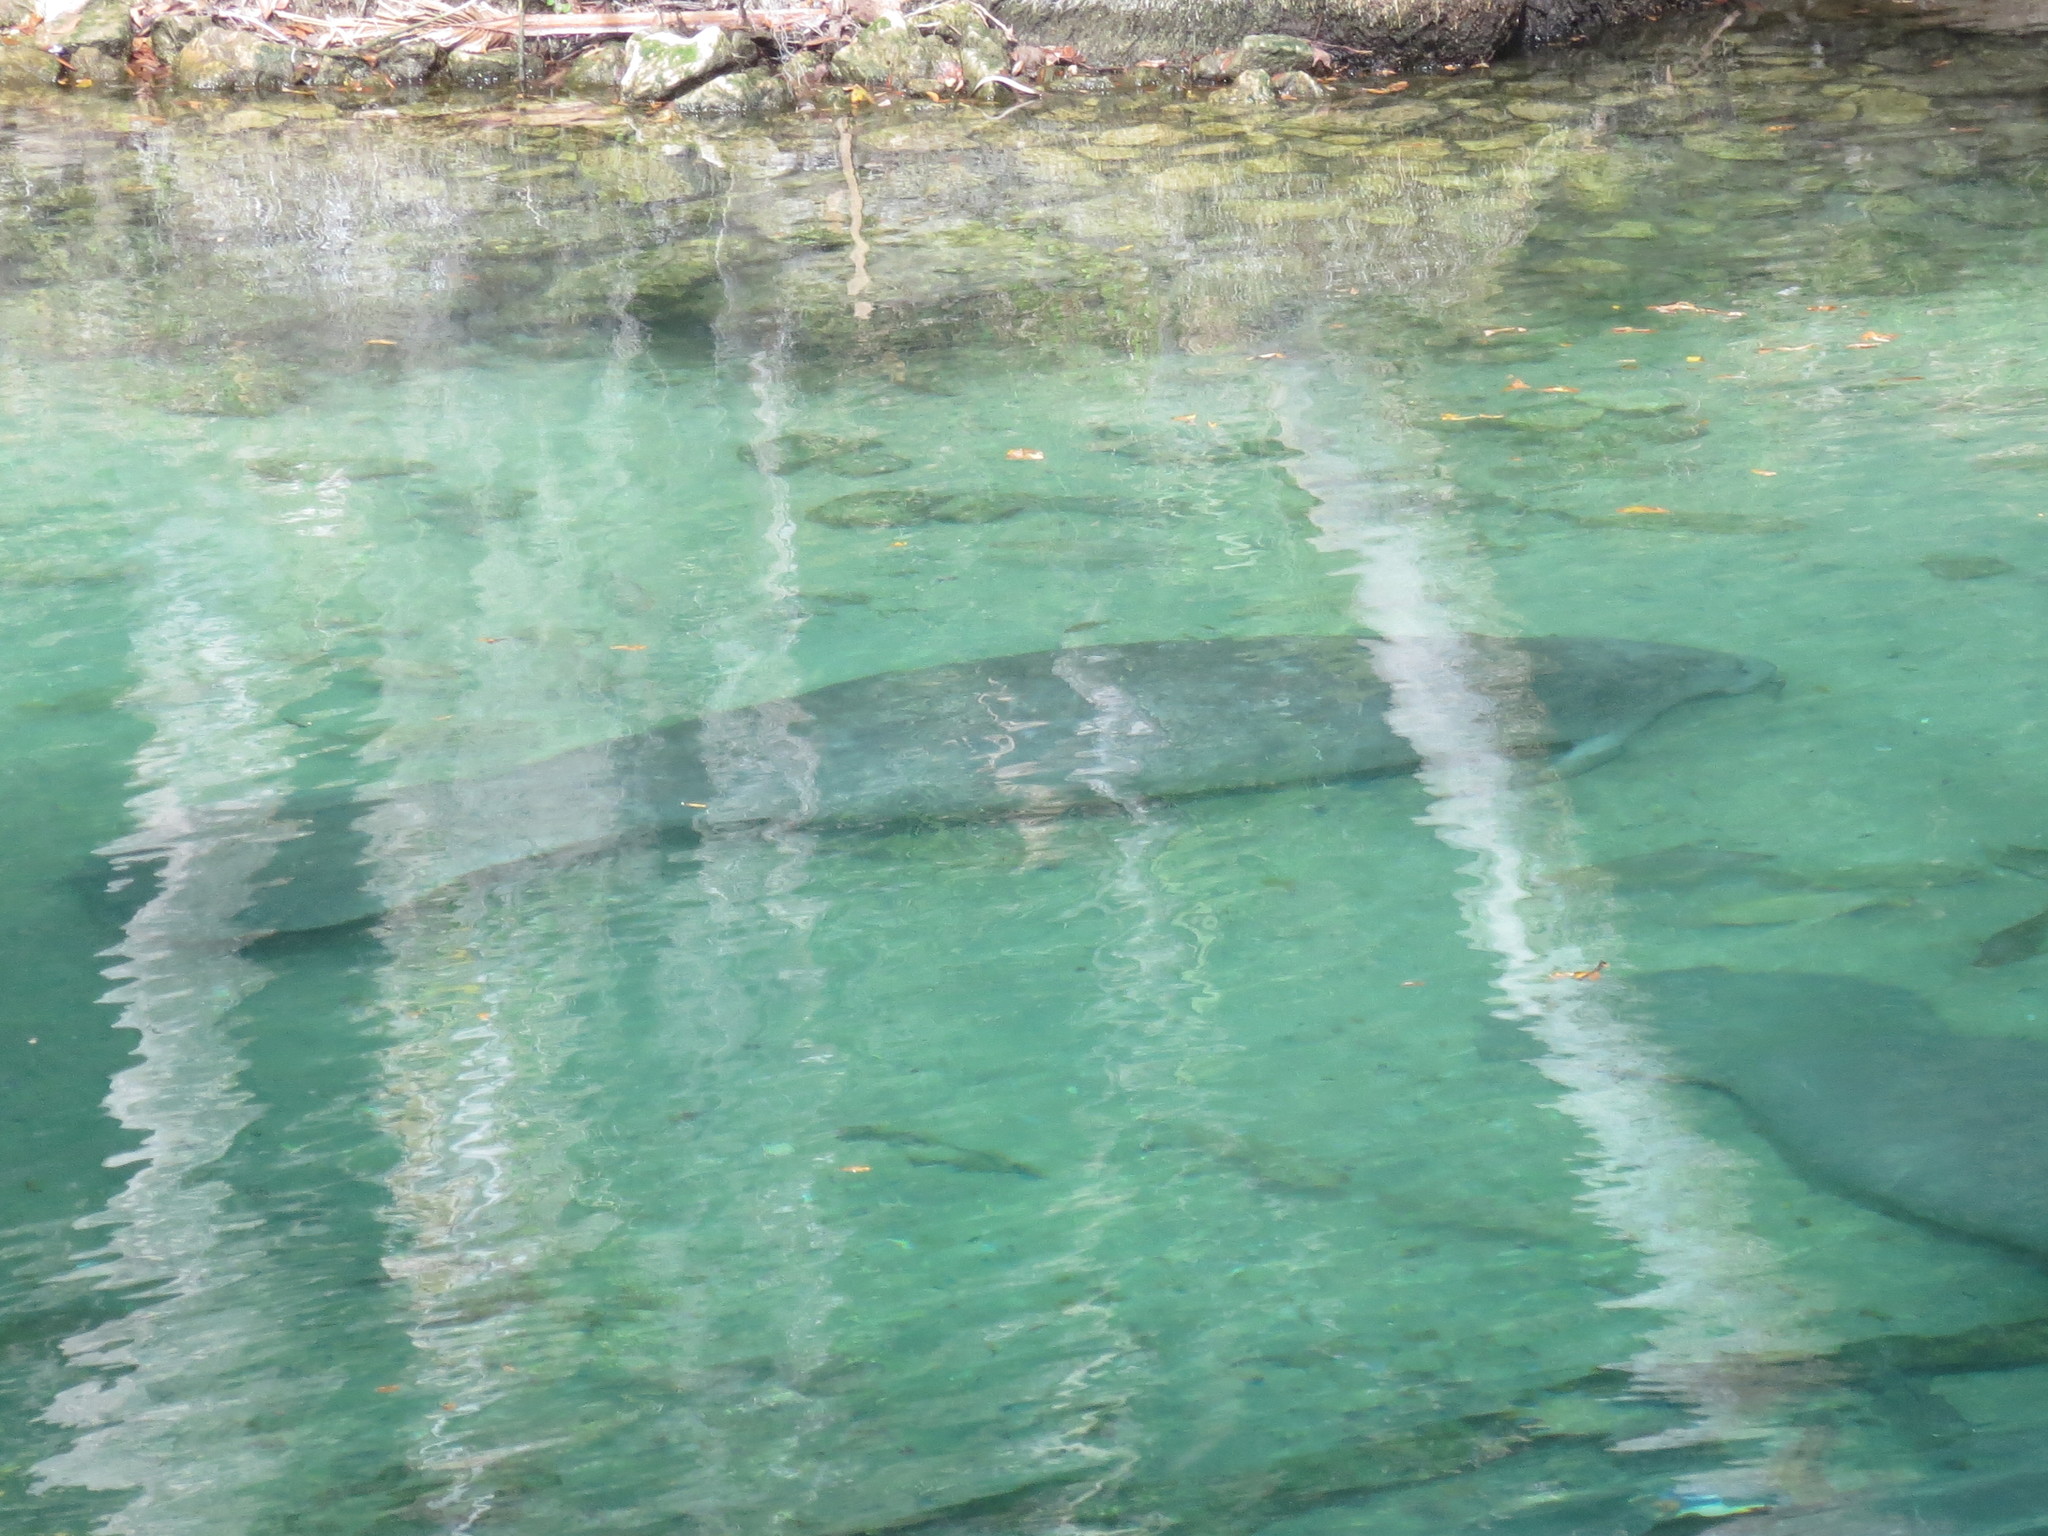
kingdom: Animalia
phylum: Chordata
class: Mammalia
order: Sirenia
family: Trichechidae
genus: Trichechus
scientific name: Trichechus manatus
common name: West indian manatee
